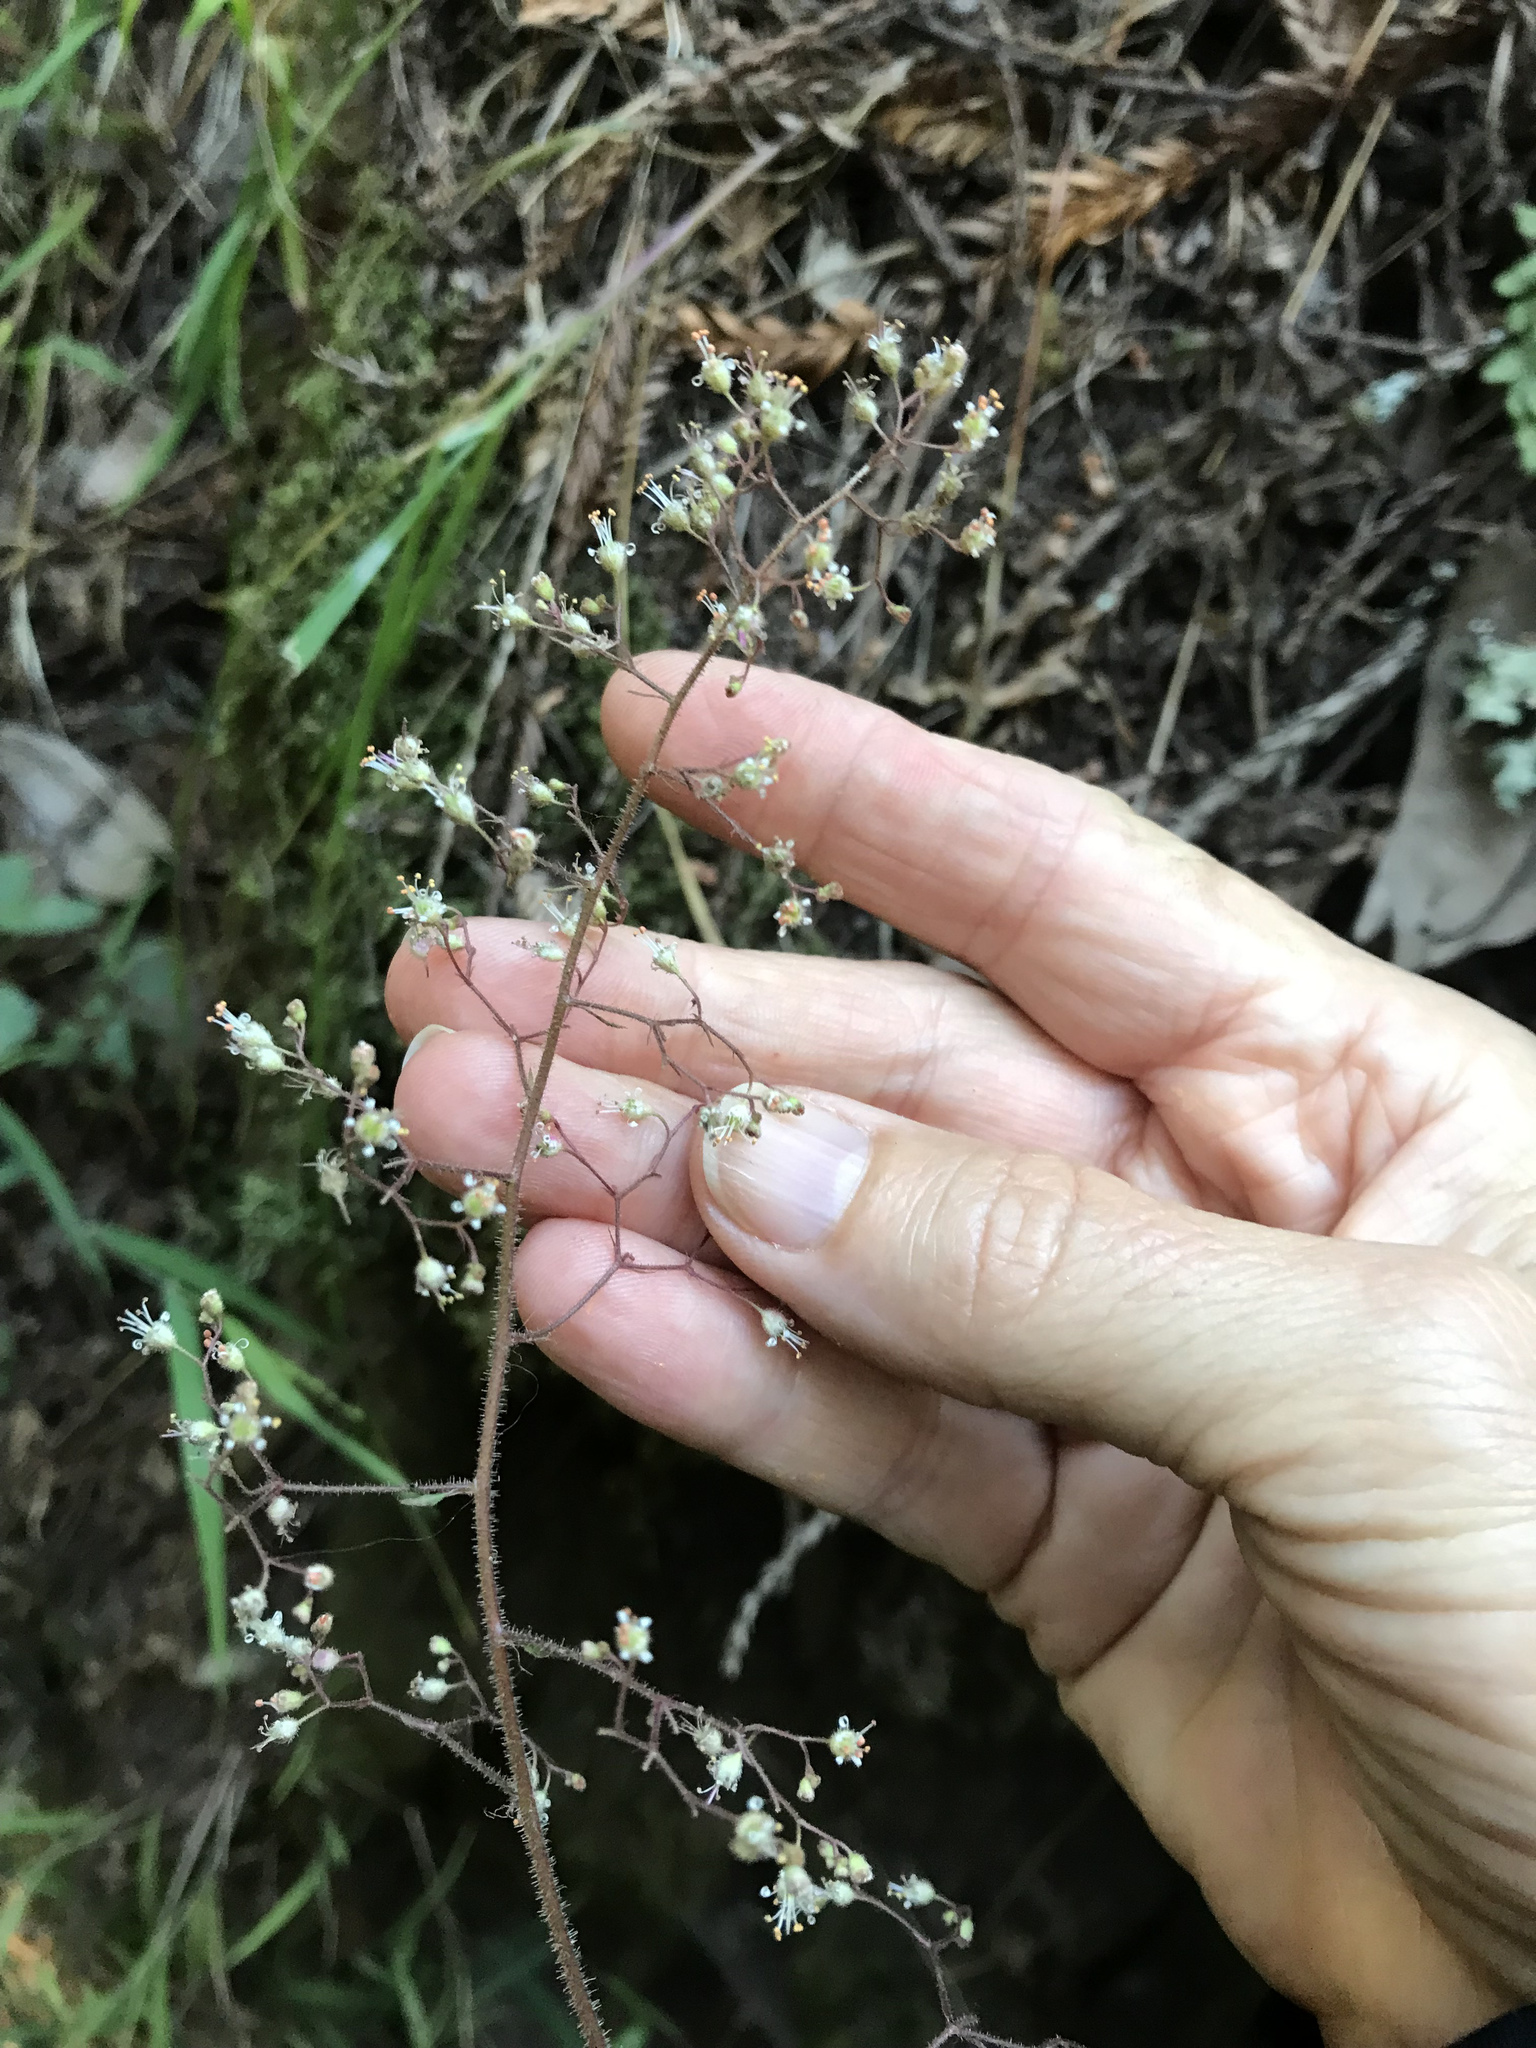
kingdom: Plantae
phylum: Tracheophyta
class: Magnoliopsida
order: Saxifragales
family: Saxifragaceae
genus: Heuchera
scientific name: Heuchera micrantha
